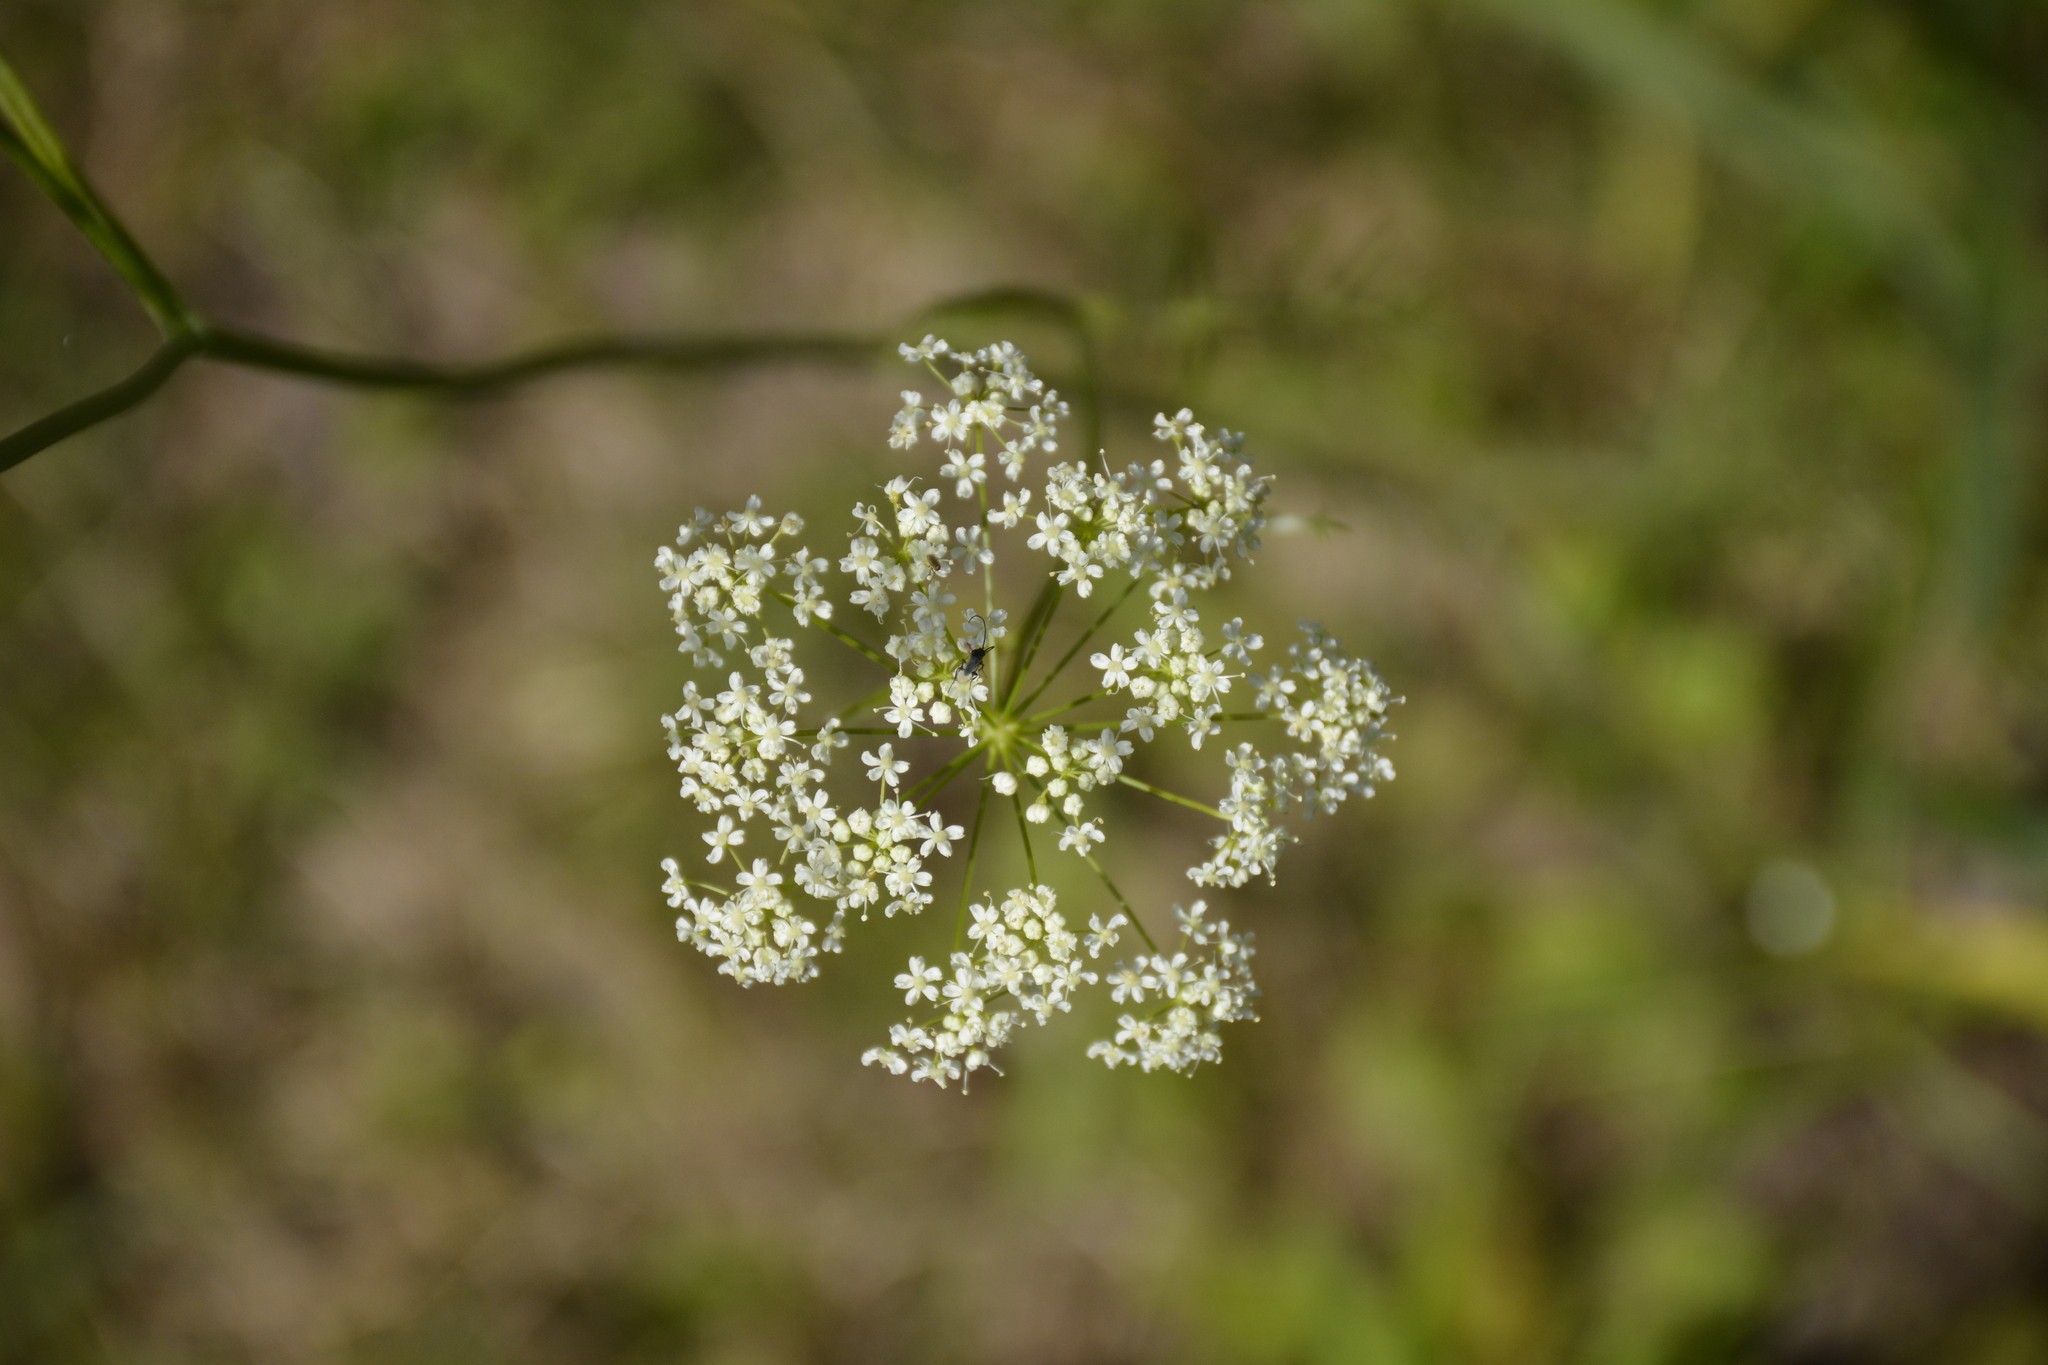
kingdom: Plantae
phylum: Tracheophyta
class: Magnoliopsida
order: Apiales
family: Apiaceae
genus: Pimpinella
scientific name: Pimpinella saxifraga
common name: Burnet-saxifrage
